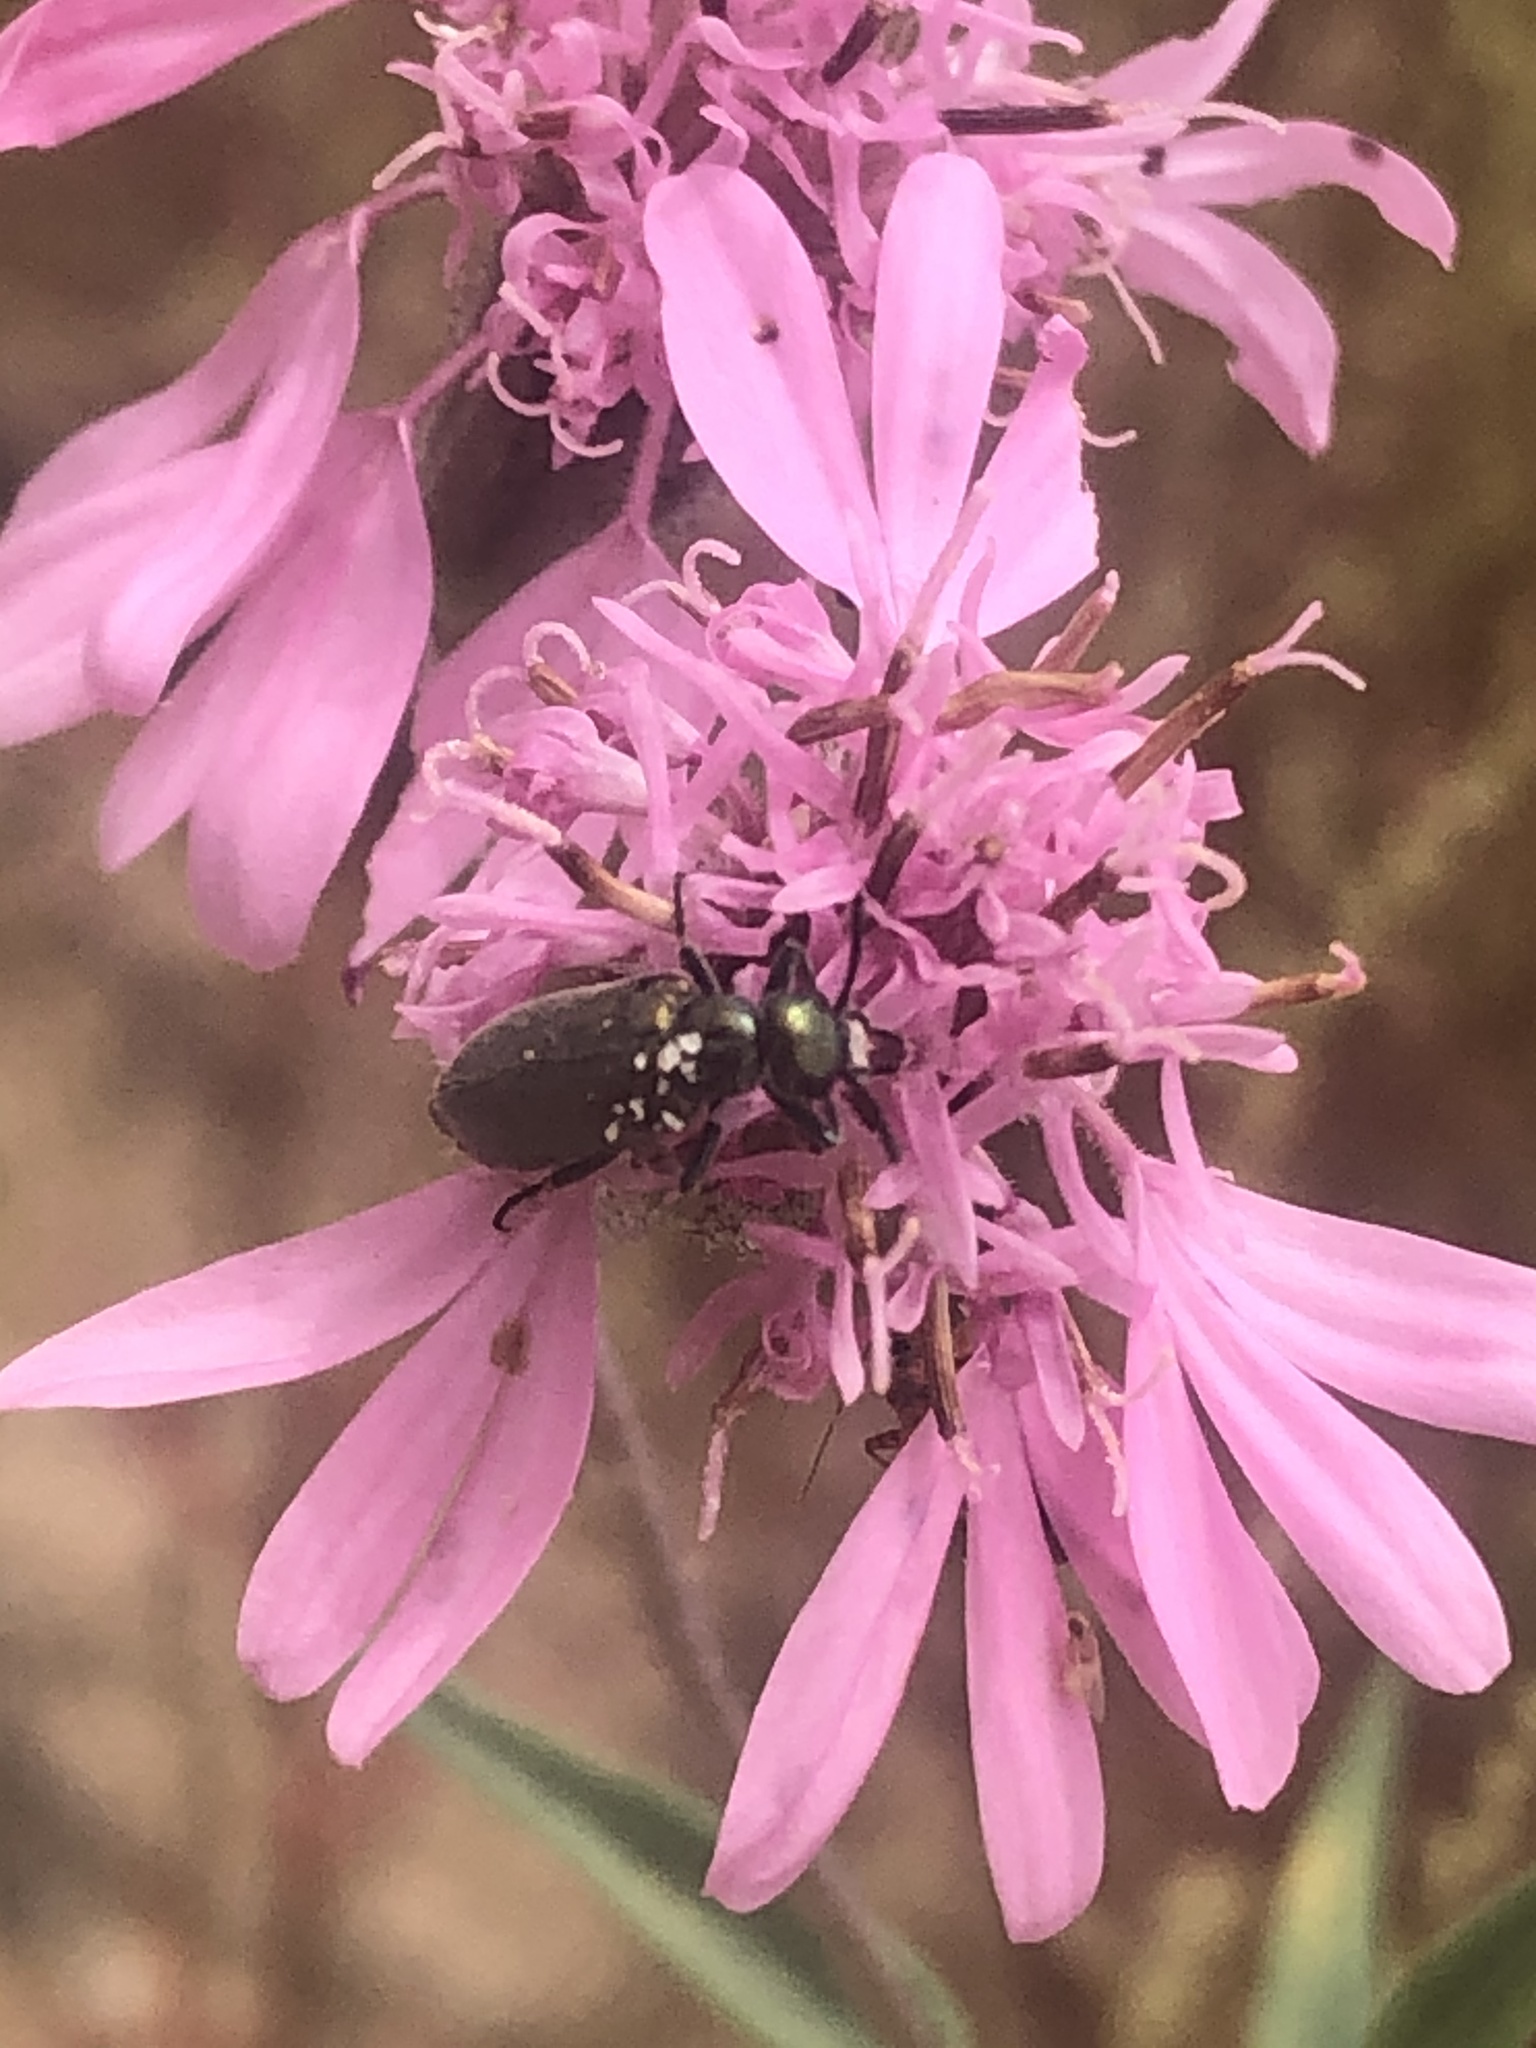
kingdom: Animalia
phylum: Arthropoda
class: Insecta
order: Coleoptera
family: Meloidae
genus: Eupompha
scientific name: Eupompha viridis
